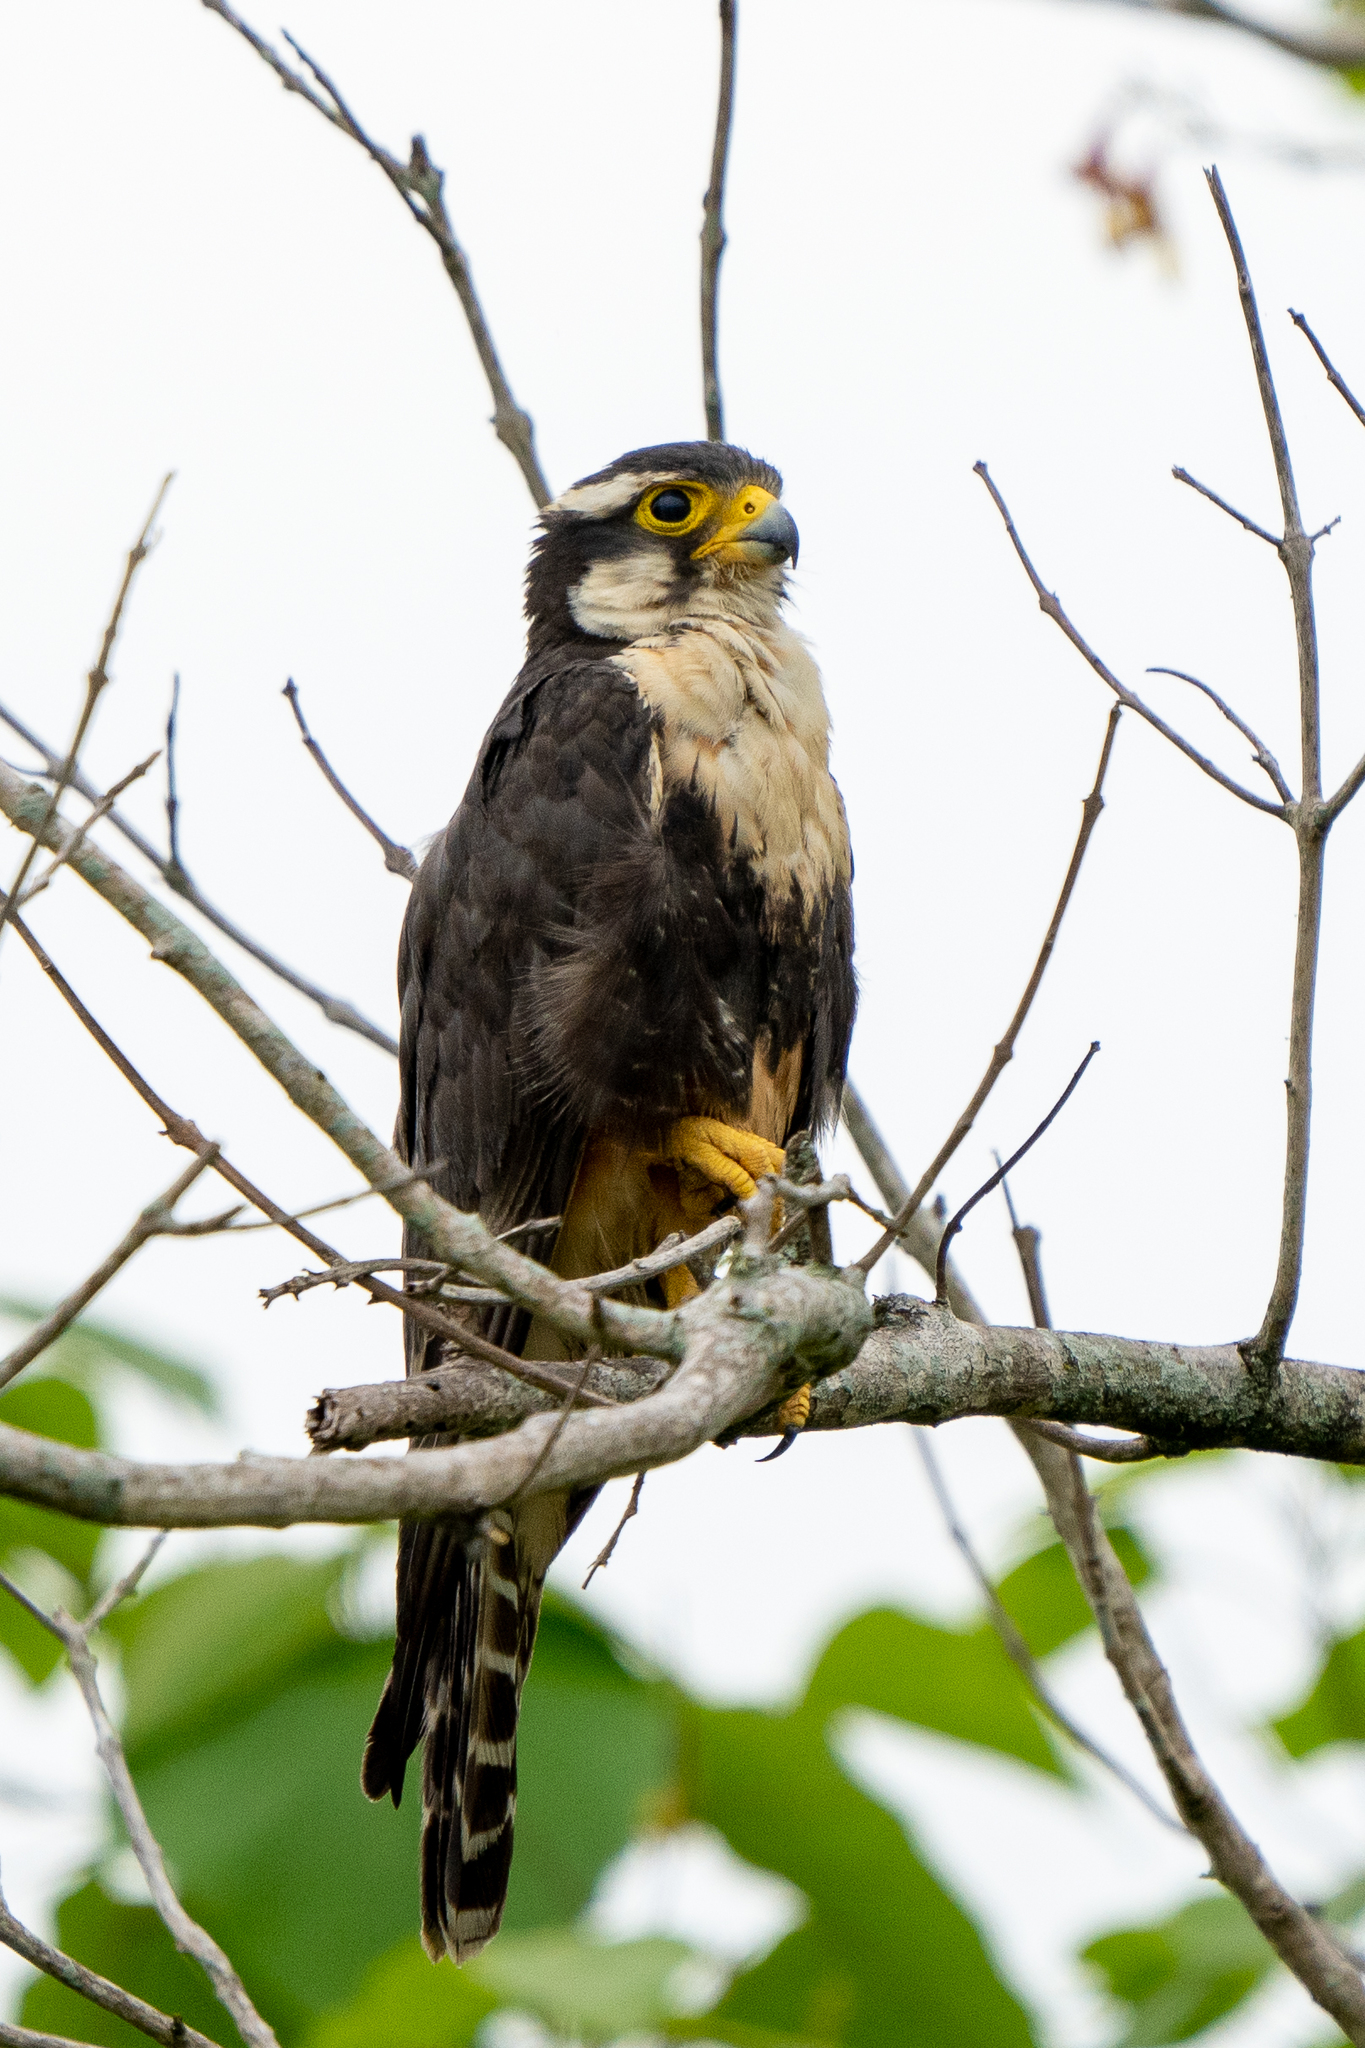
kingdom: Animalia
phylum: Chordata
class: Aves
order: Falconiformes
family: Falconidae
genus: Falco
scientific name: Falco femoralis
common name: Aplomado falcon
